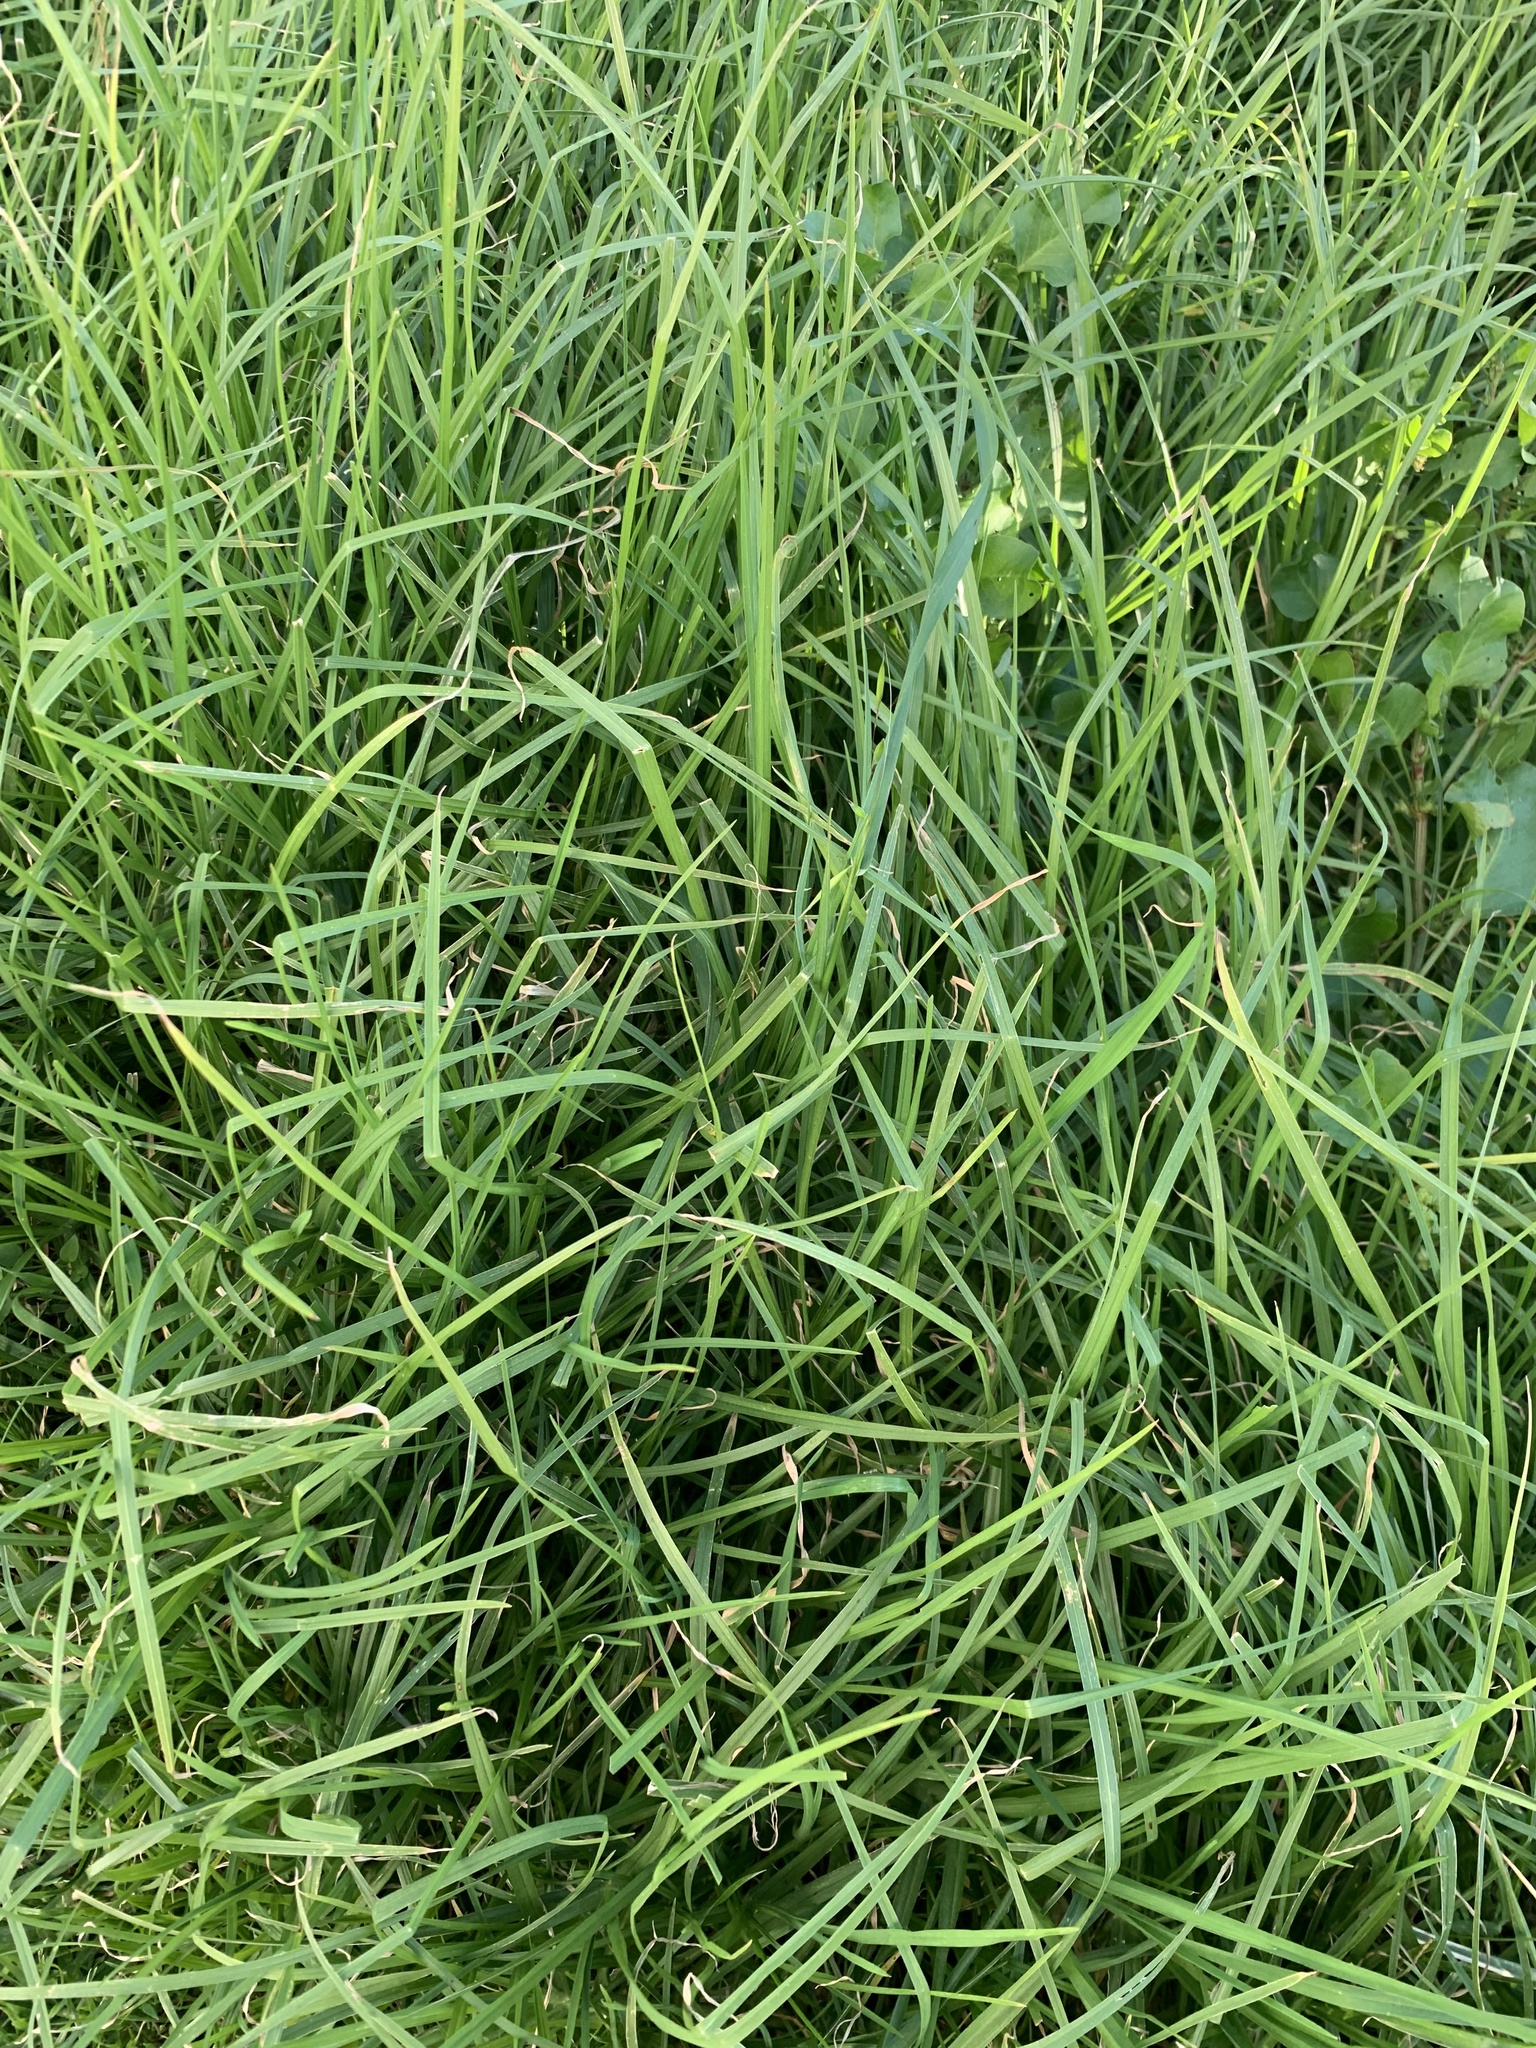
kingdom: Plantae
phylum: Tracheophyta
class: Liliopsida
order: Poales
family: Poaceae
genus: Cenchrus
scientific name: Cenchrus clandestinus
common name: Kikuyugrass
